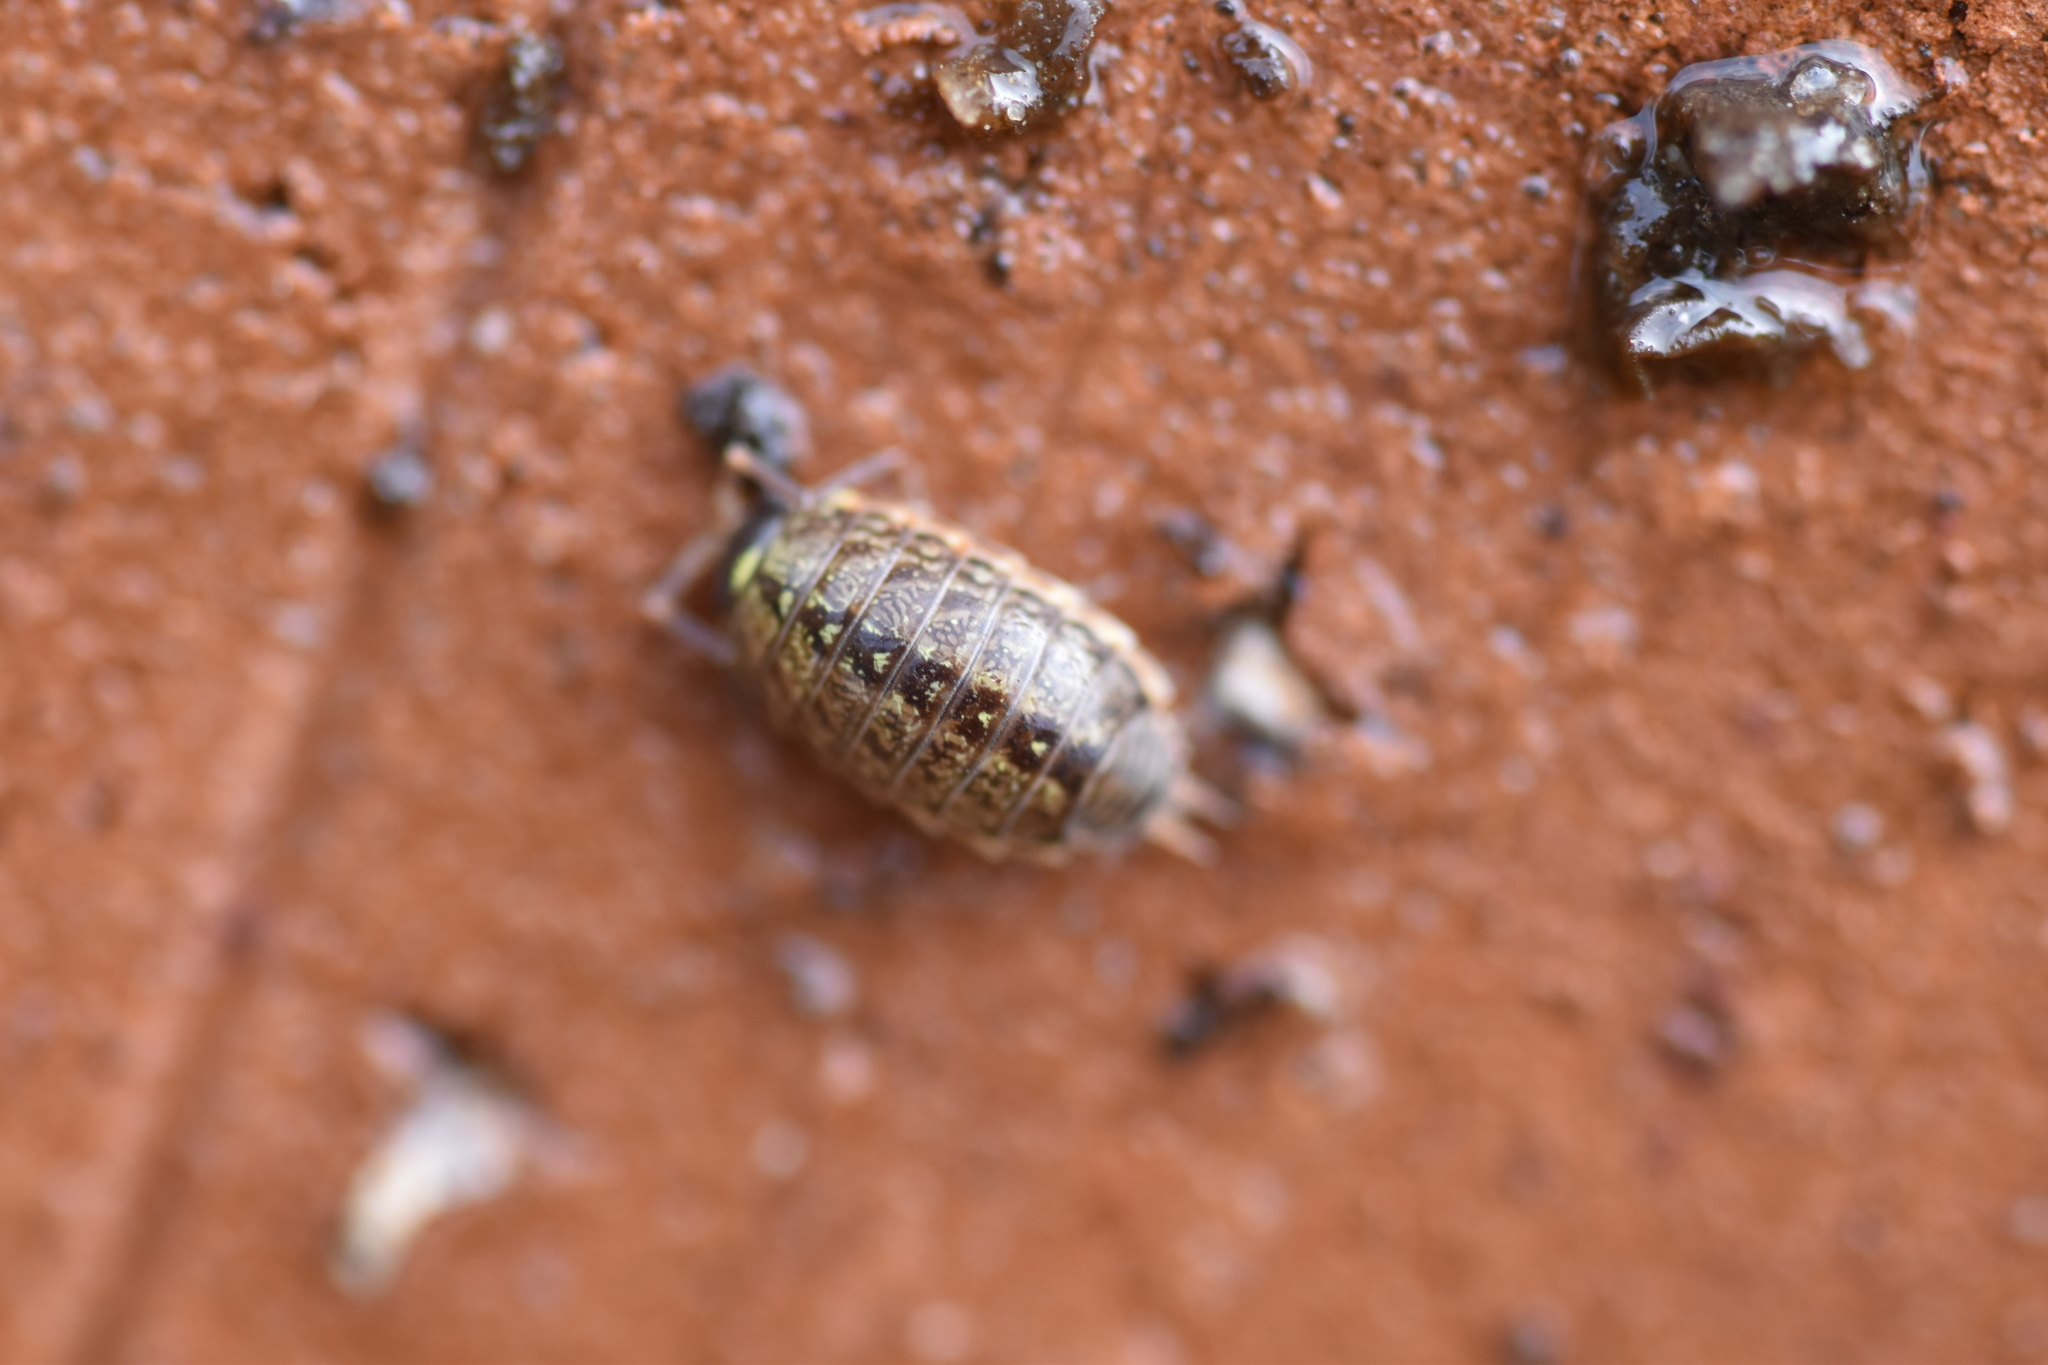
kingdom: Animalia
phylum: Arthropoda
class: Malacostraca
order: Isopoda
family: Philosciidae
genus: Philoscia
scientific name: Philoscia muscorum
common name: Common striped woodlouse
